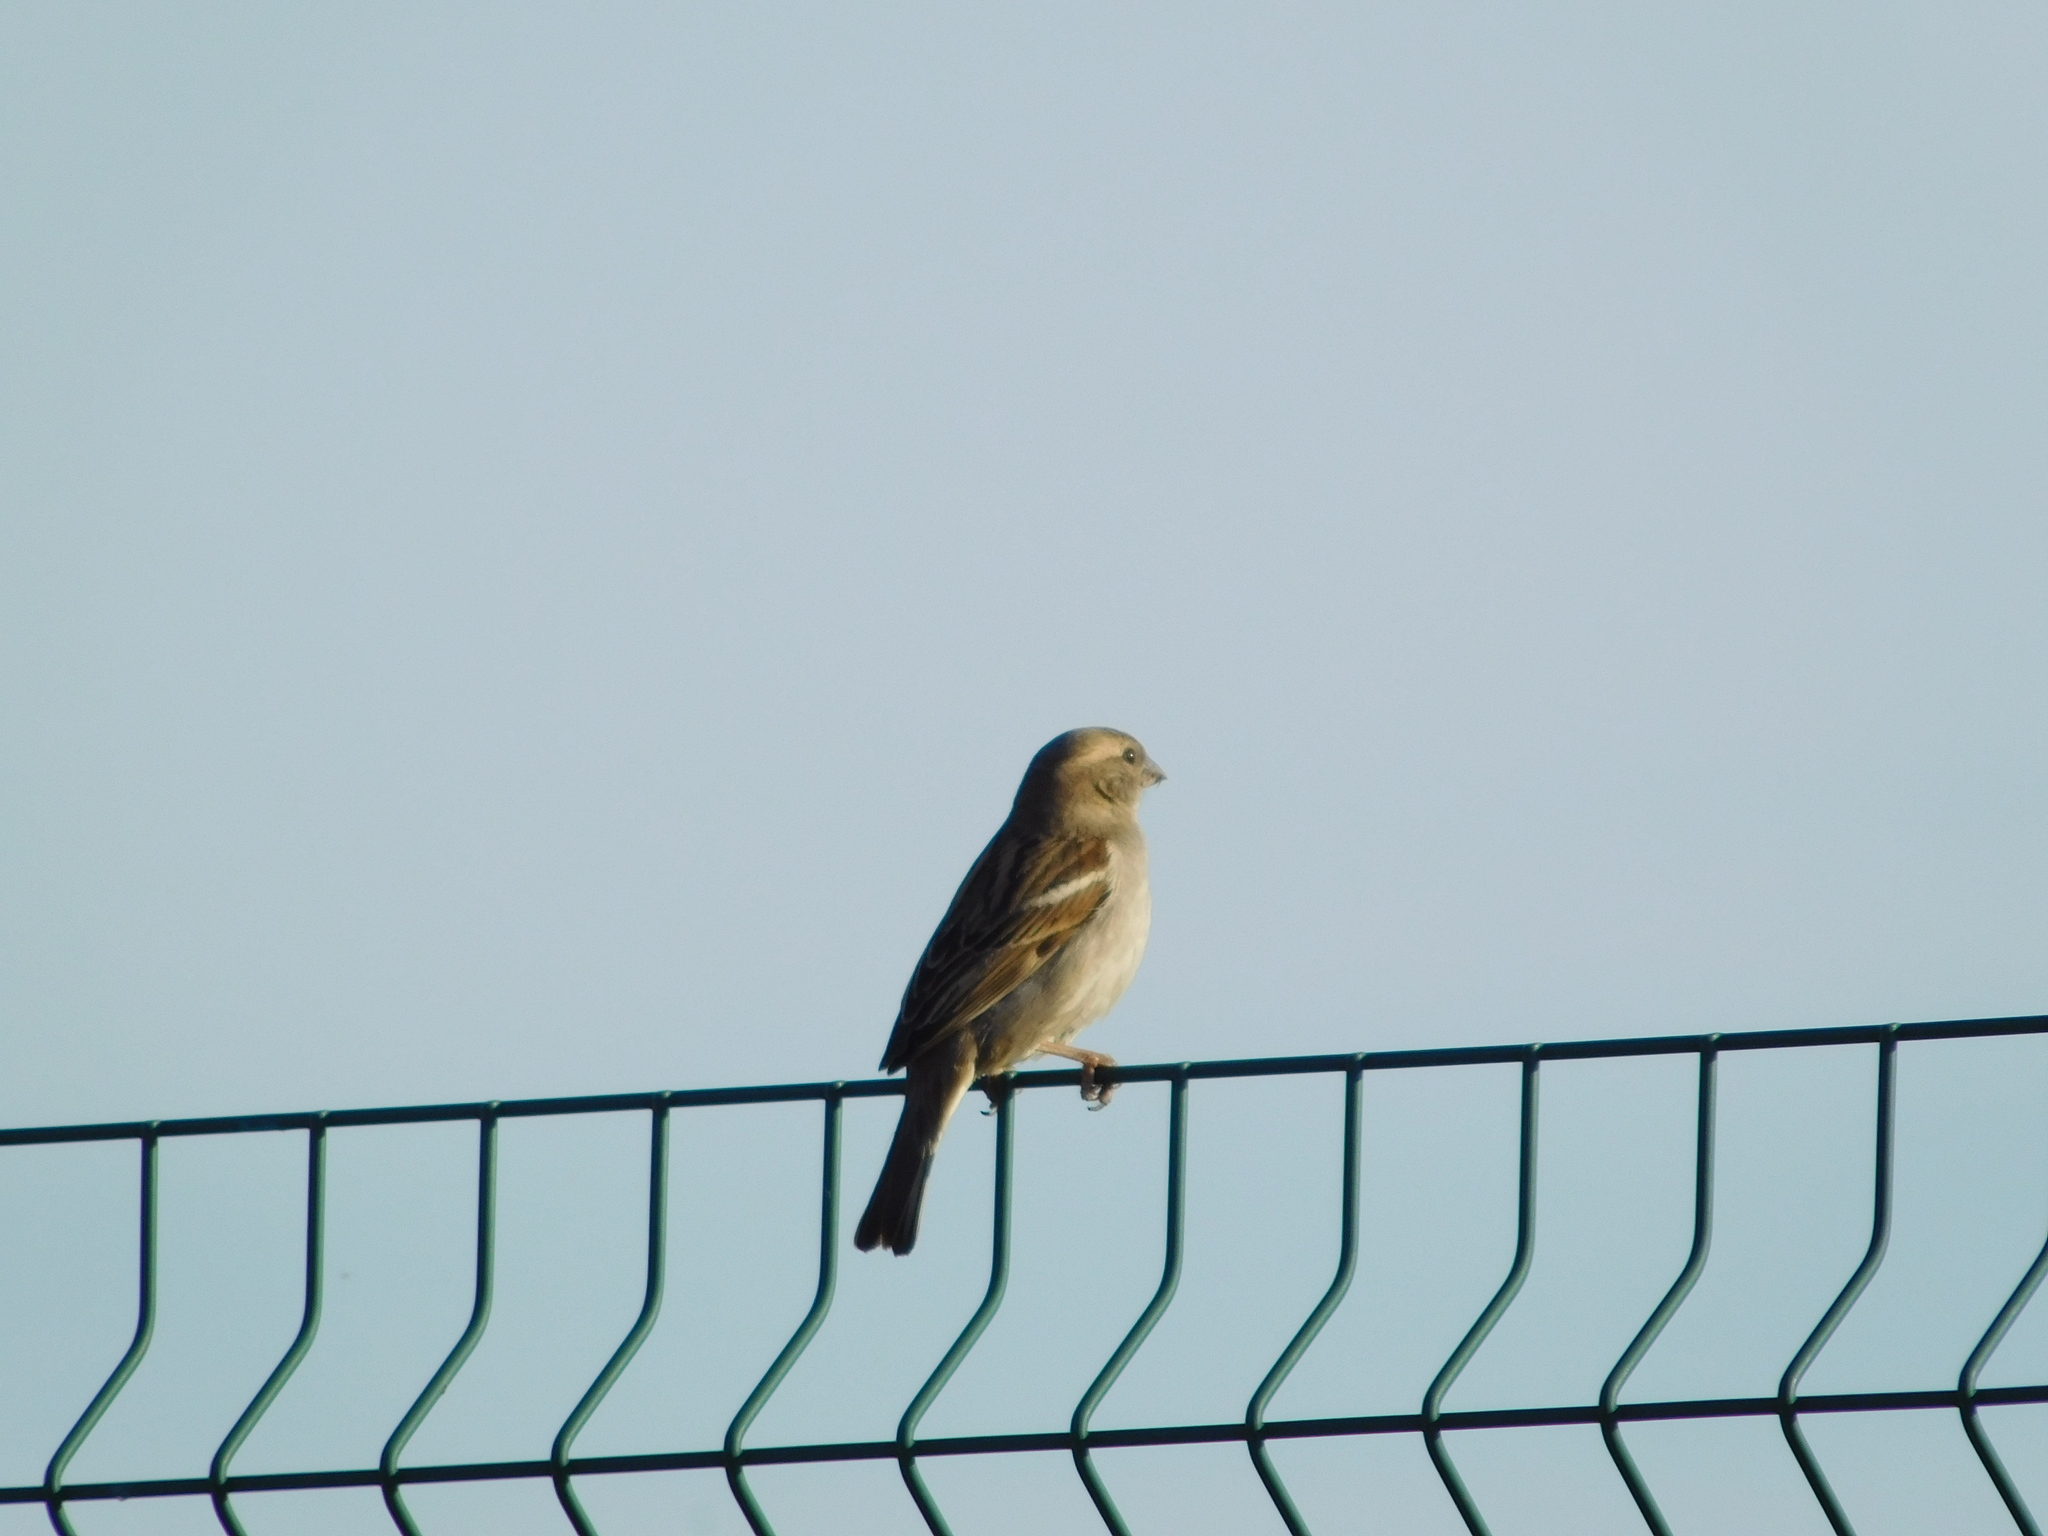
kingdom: Animalia
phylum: Chordata
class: Aves
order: Passeriformes
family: Passeridae
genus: Passer
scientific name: Passer domesticus
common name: House sparrow
